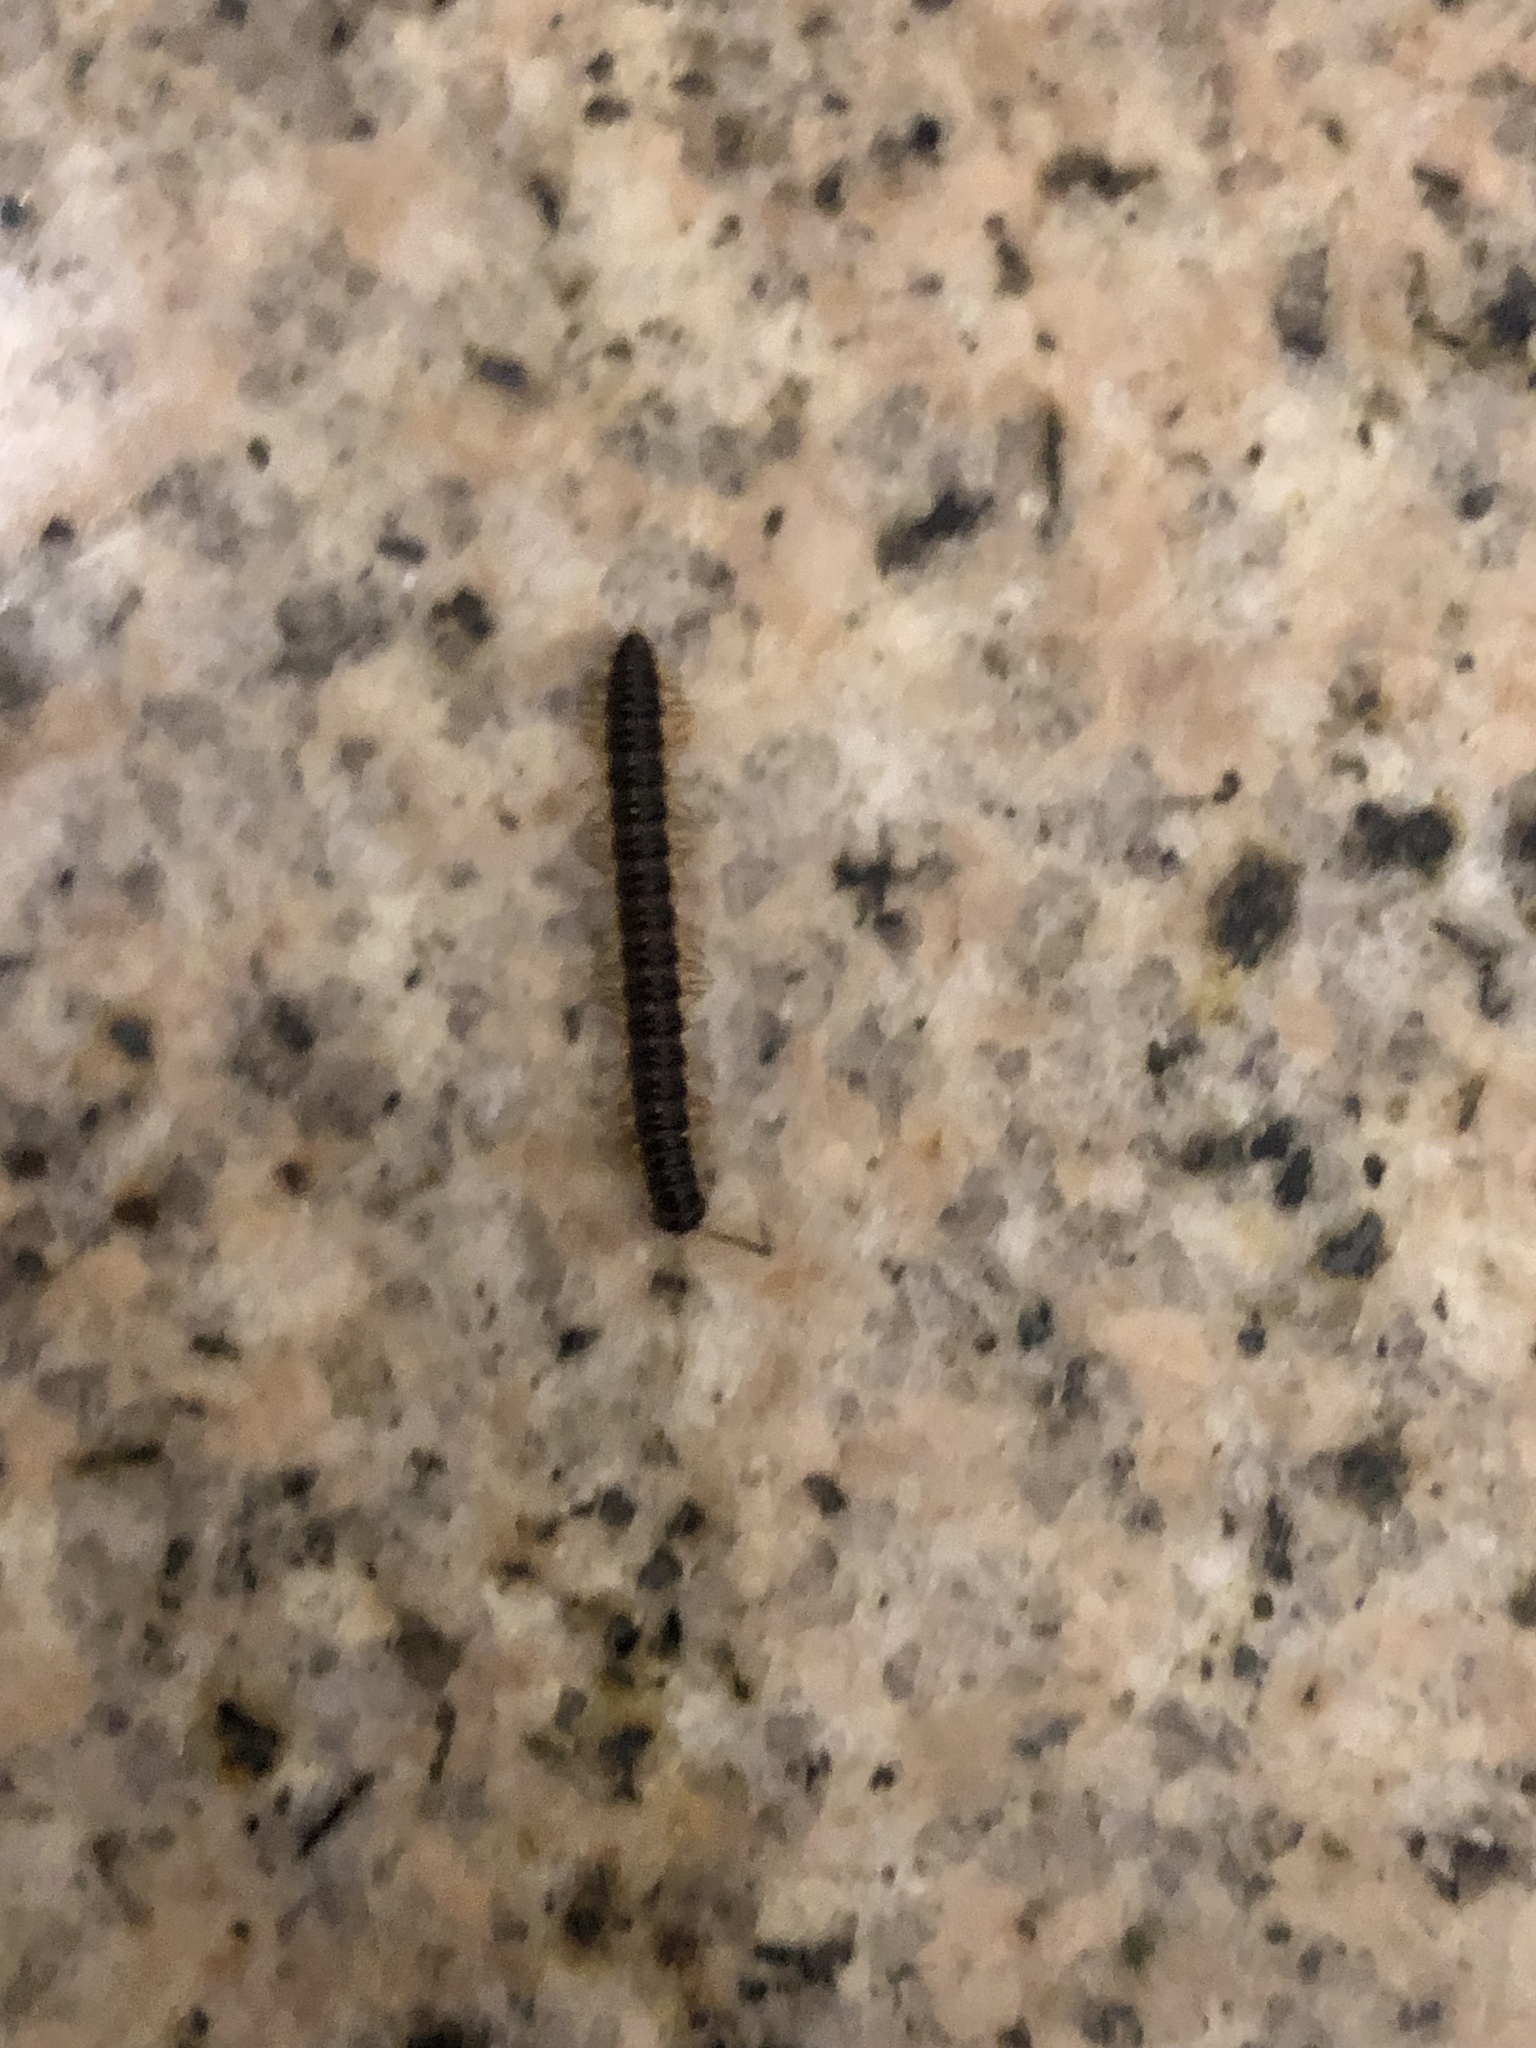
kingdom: Animalia
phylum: Arthropoda
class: Diplopoda
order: Polydesmida
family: Paradoxosomatidae
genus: Orthomorpha
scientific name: Orthomorpha coarctata
